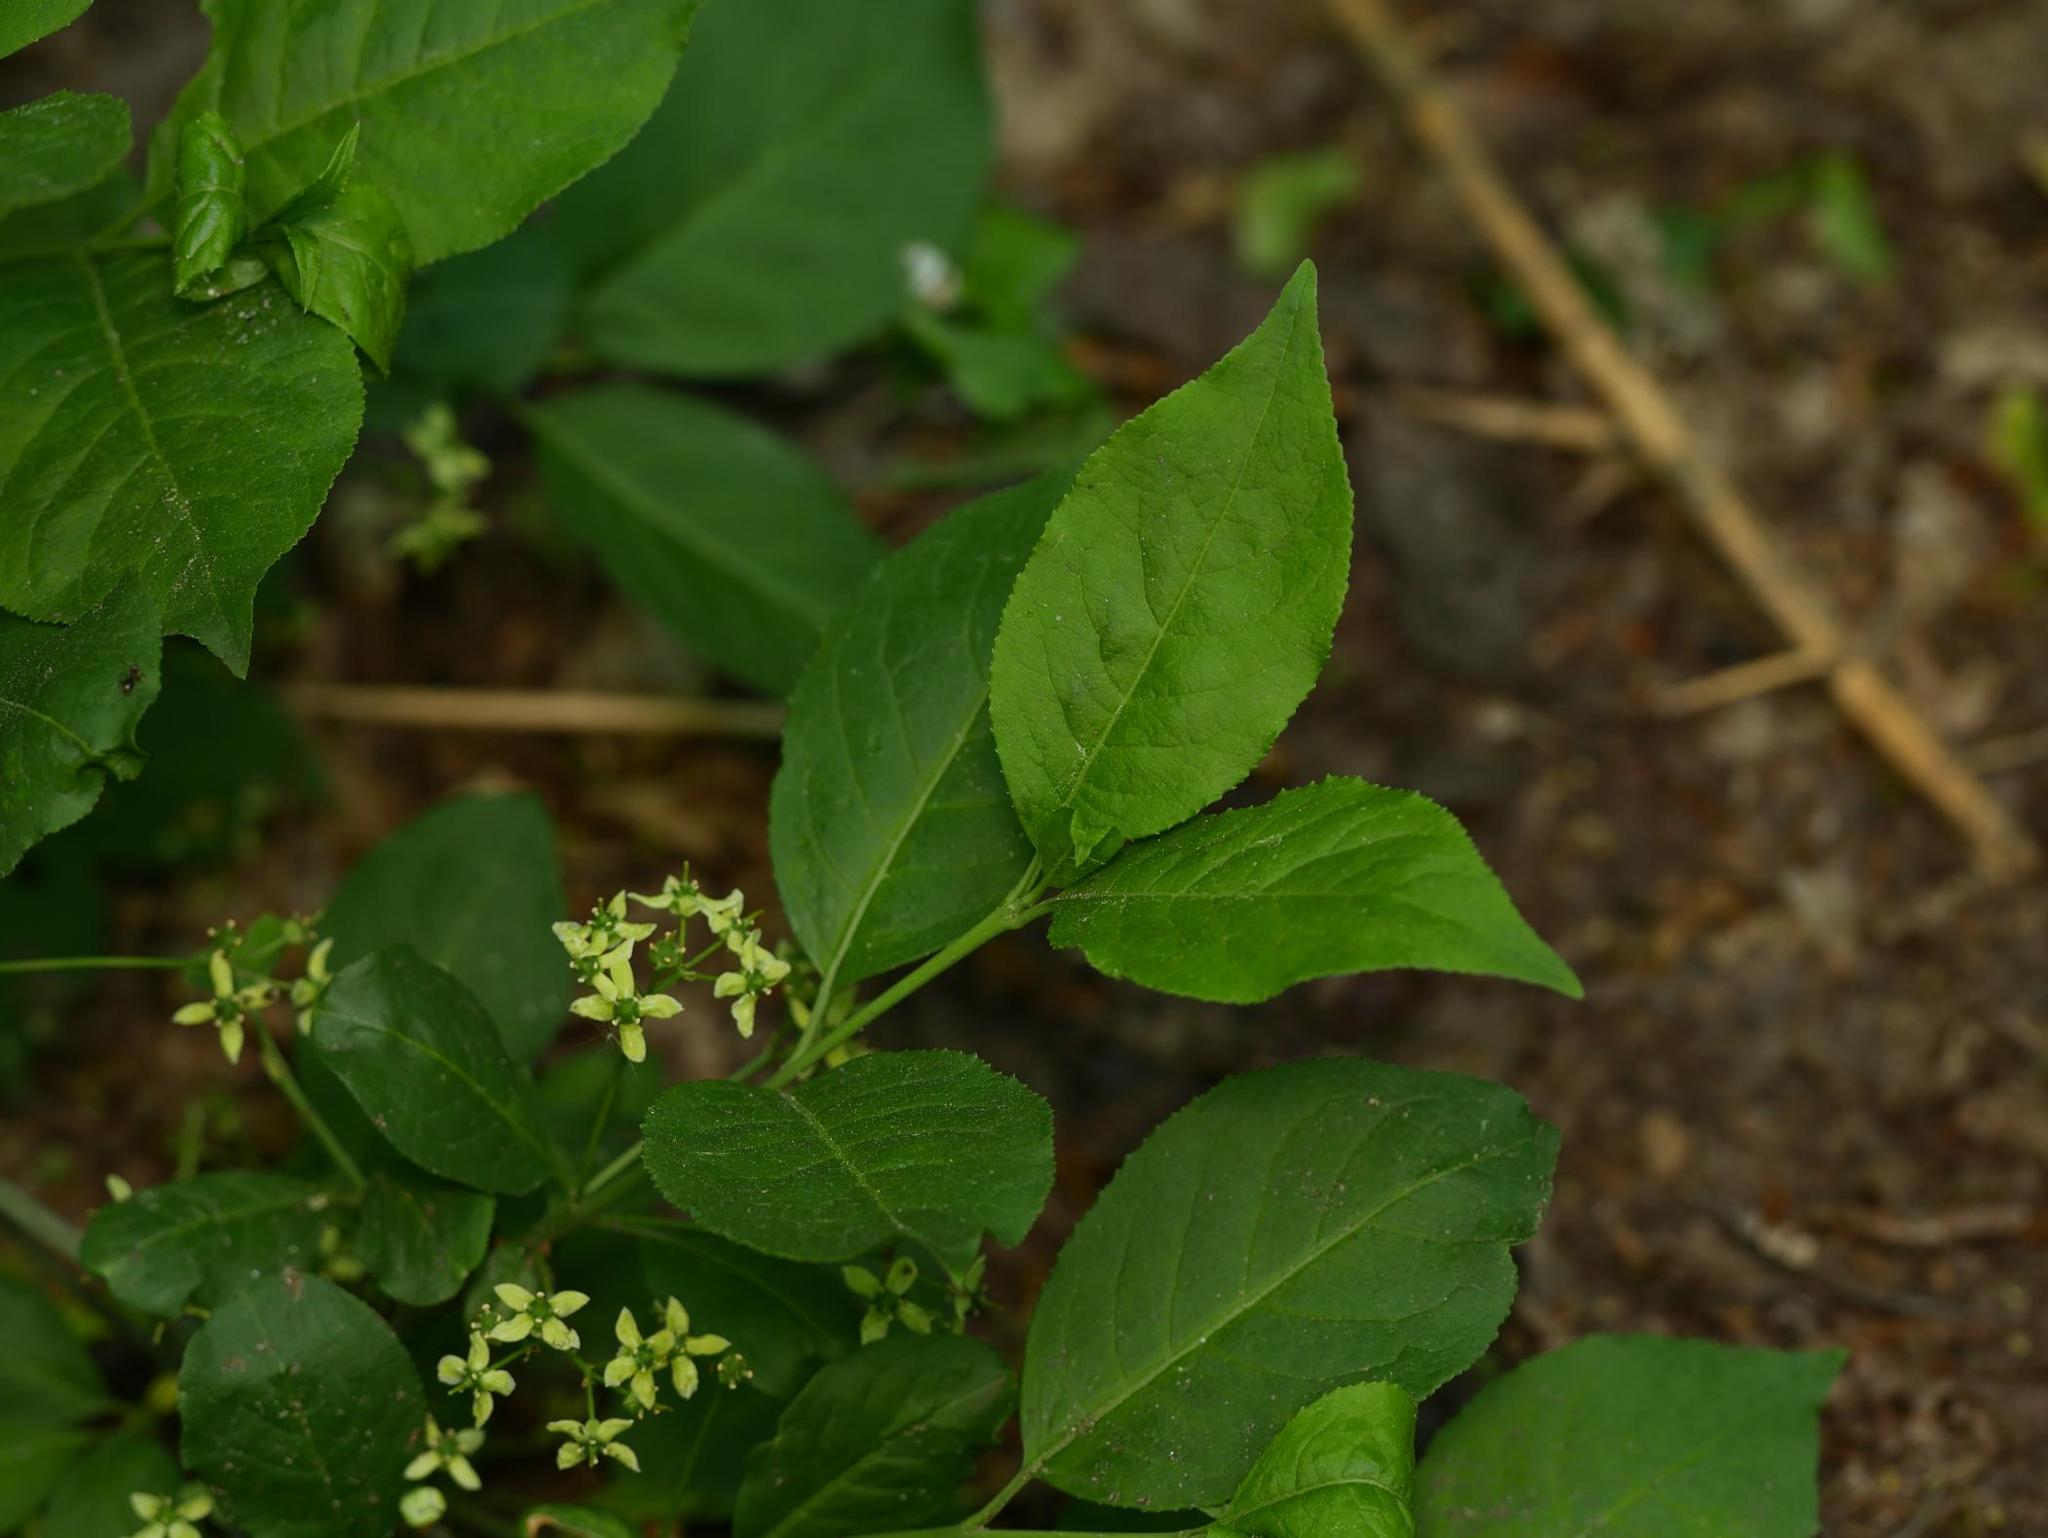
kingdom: Plantae
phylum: Tracheophyta
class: Magnoliopsida
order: Celastrales
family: Celastraceae
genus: Euonymus
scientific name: Euonymus europaeus
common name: Spindle
